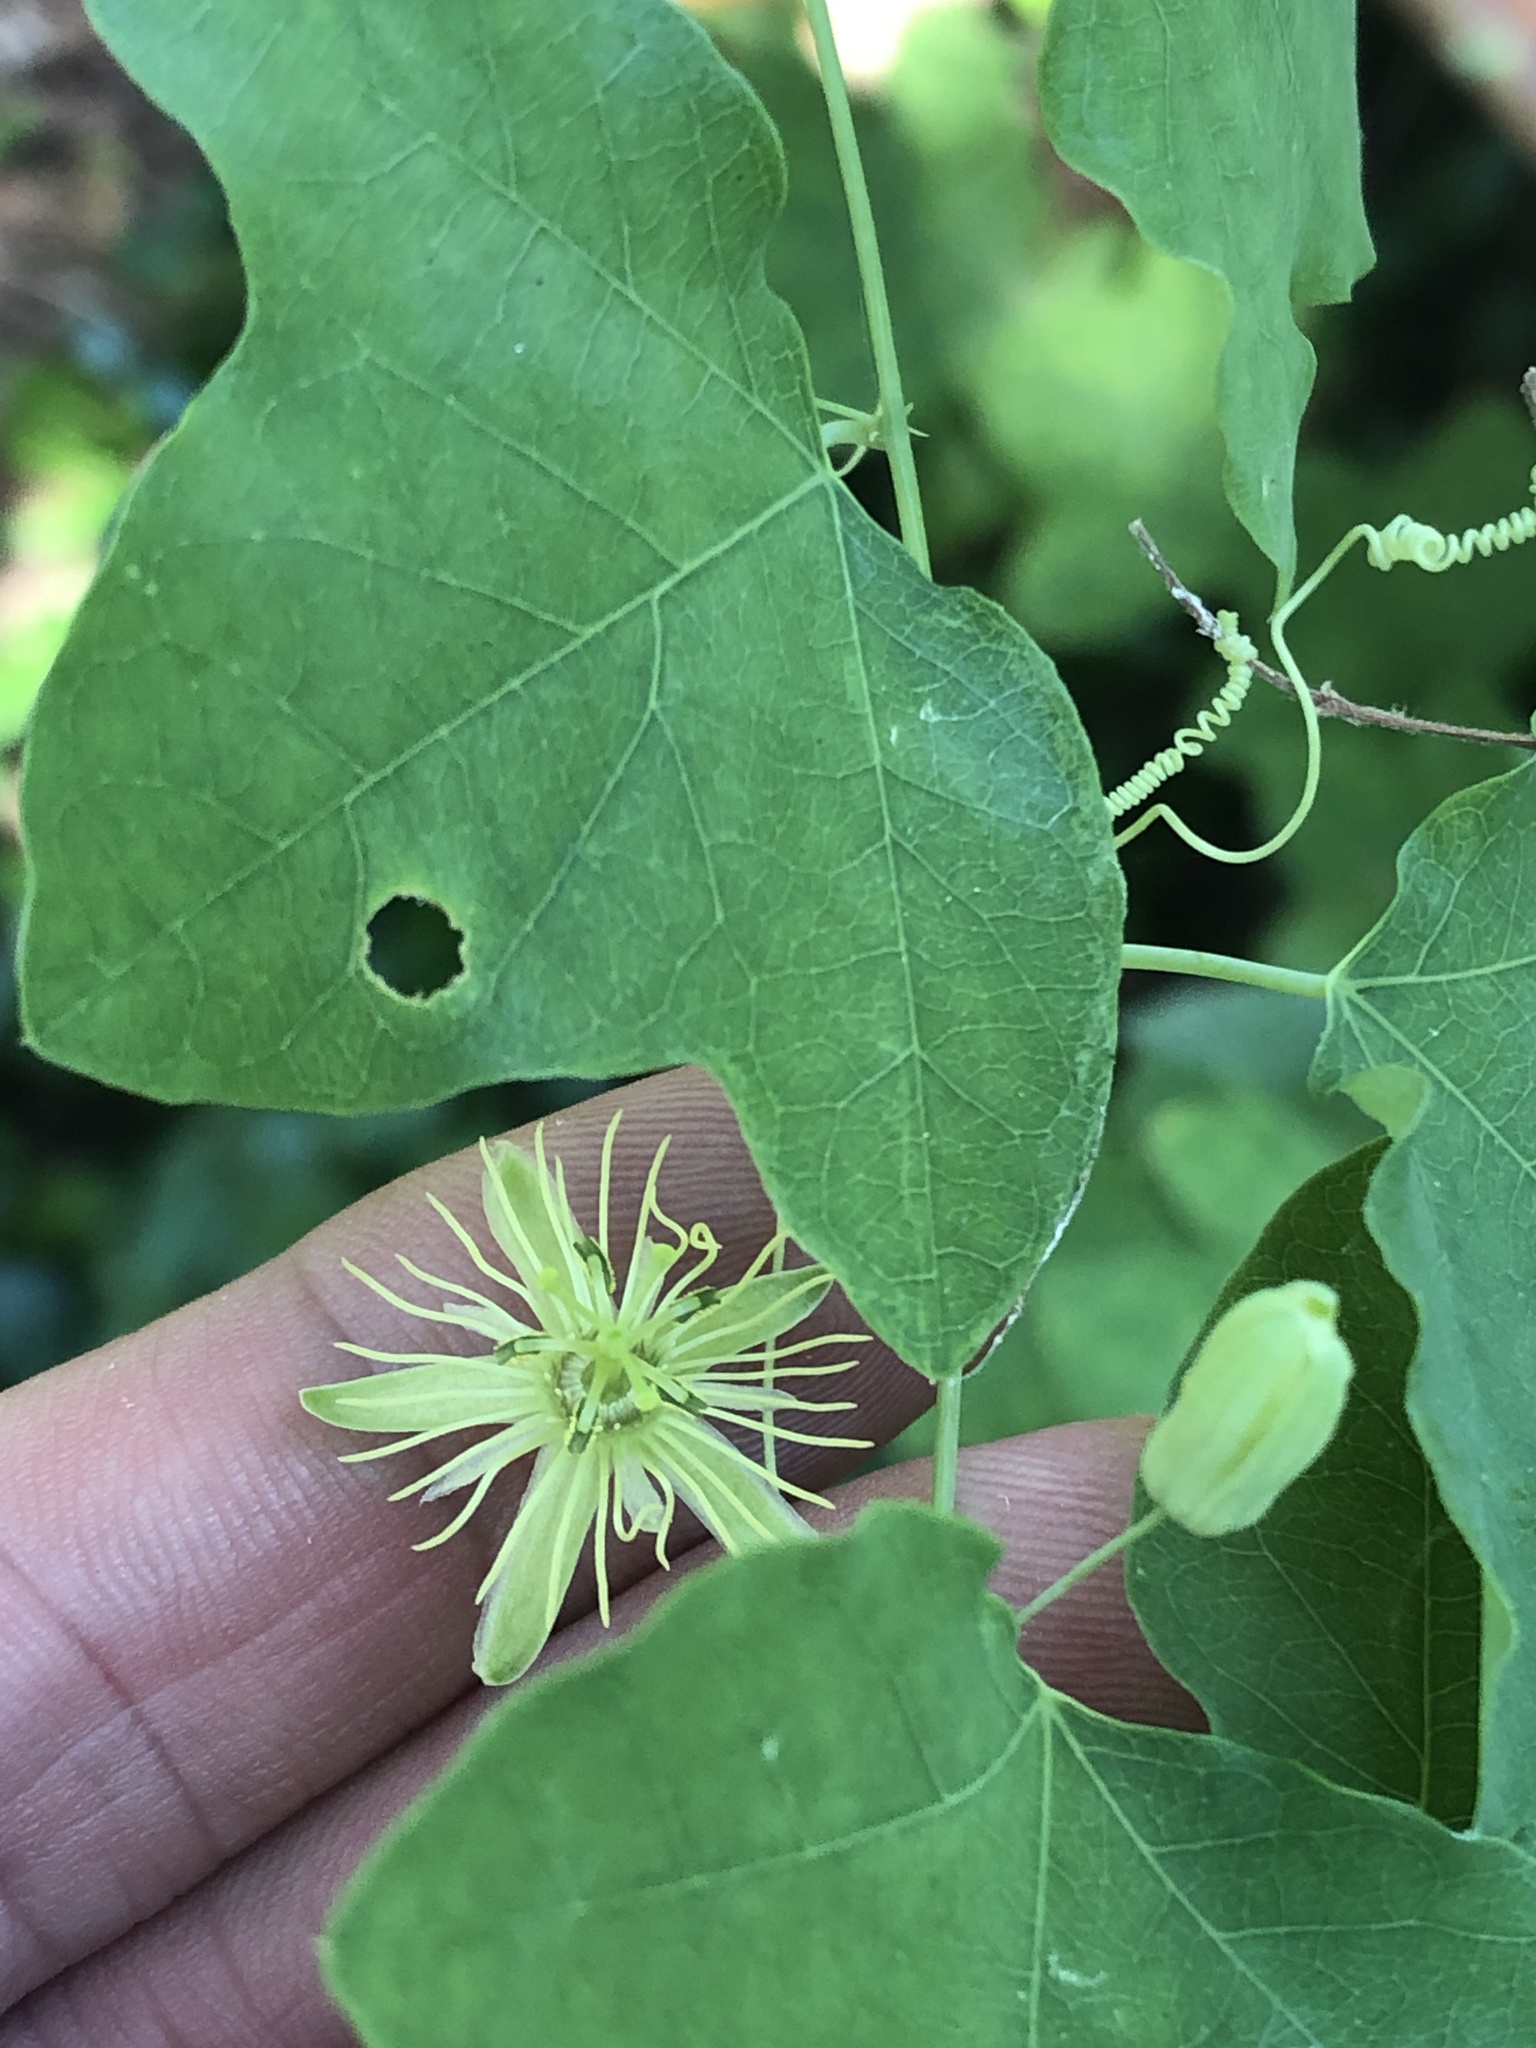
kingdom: Plantae
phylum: Tracheophyta
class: Magnoliopsida
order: Malpighiales
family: Passifloraceae
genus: Passiflora
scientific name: Passiflora lutea
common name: Yellow passionflower
